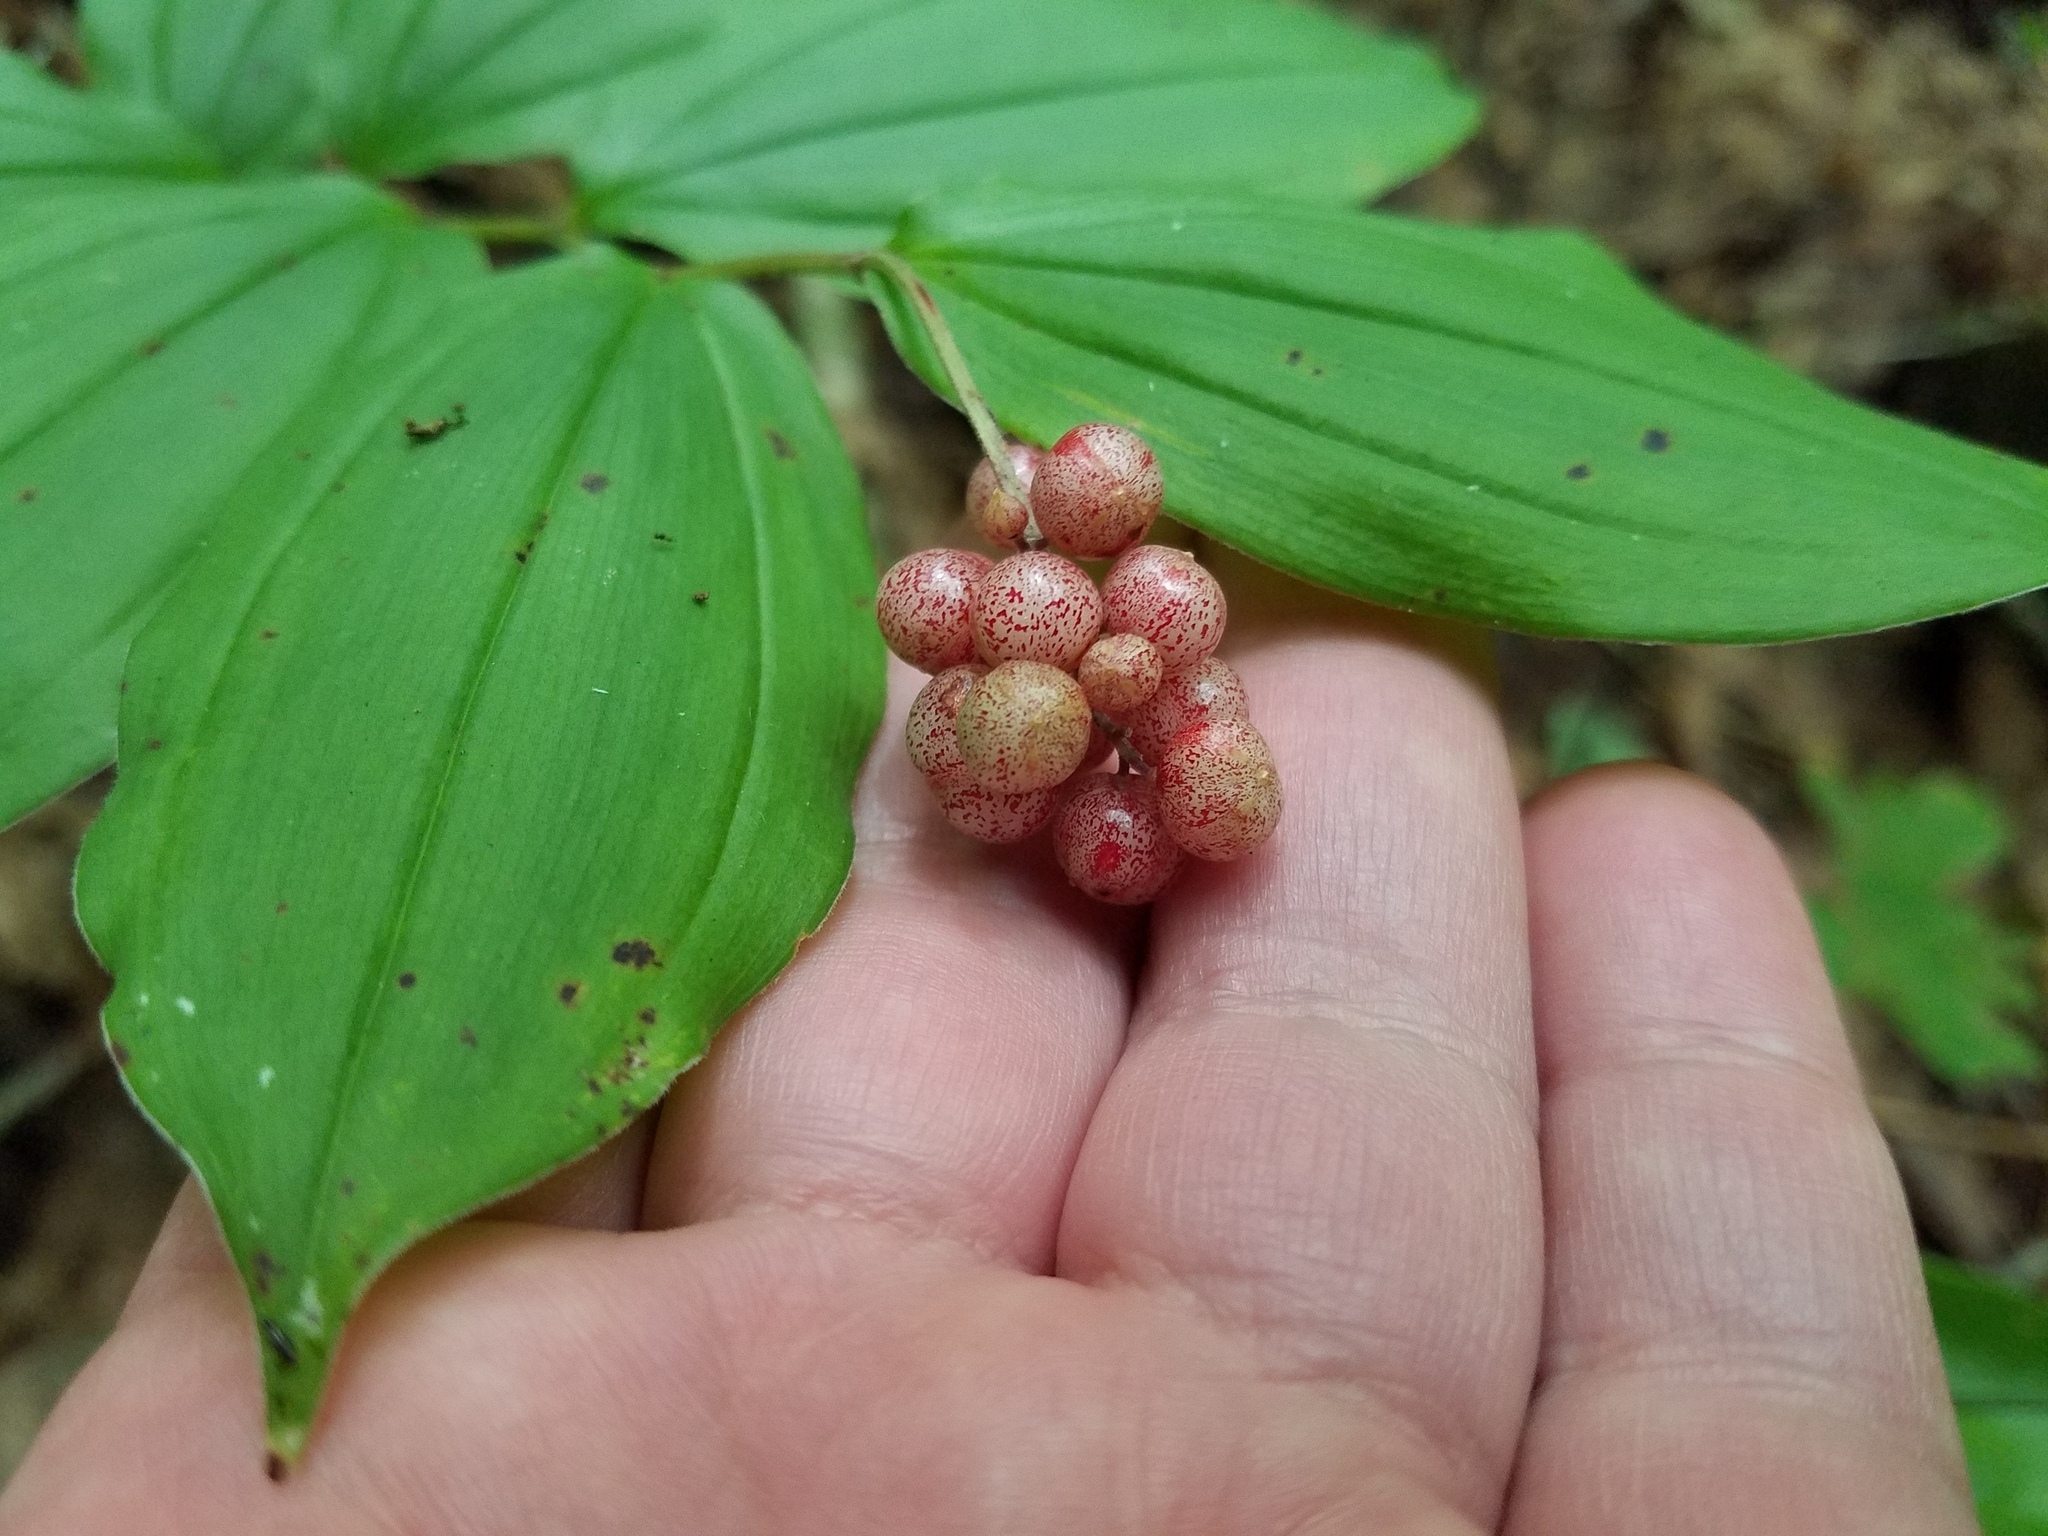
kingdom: Plantae
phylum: Tracheophyta
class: Liliopsida
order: Asparagales
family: Asparagaceae
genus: Maianthemum
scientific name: Maianthemum racemosum
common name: False spikenard
